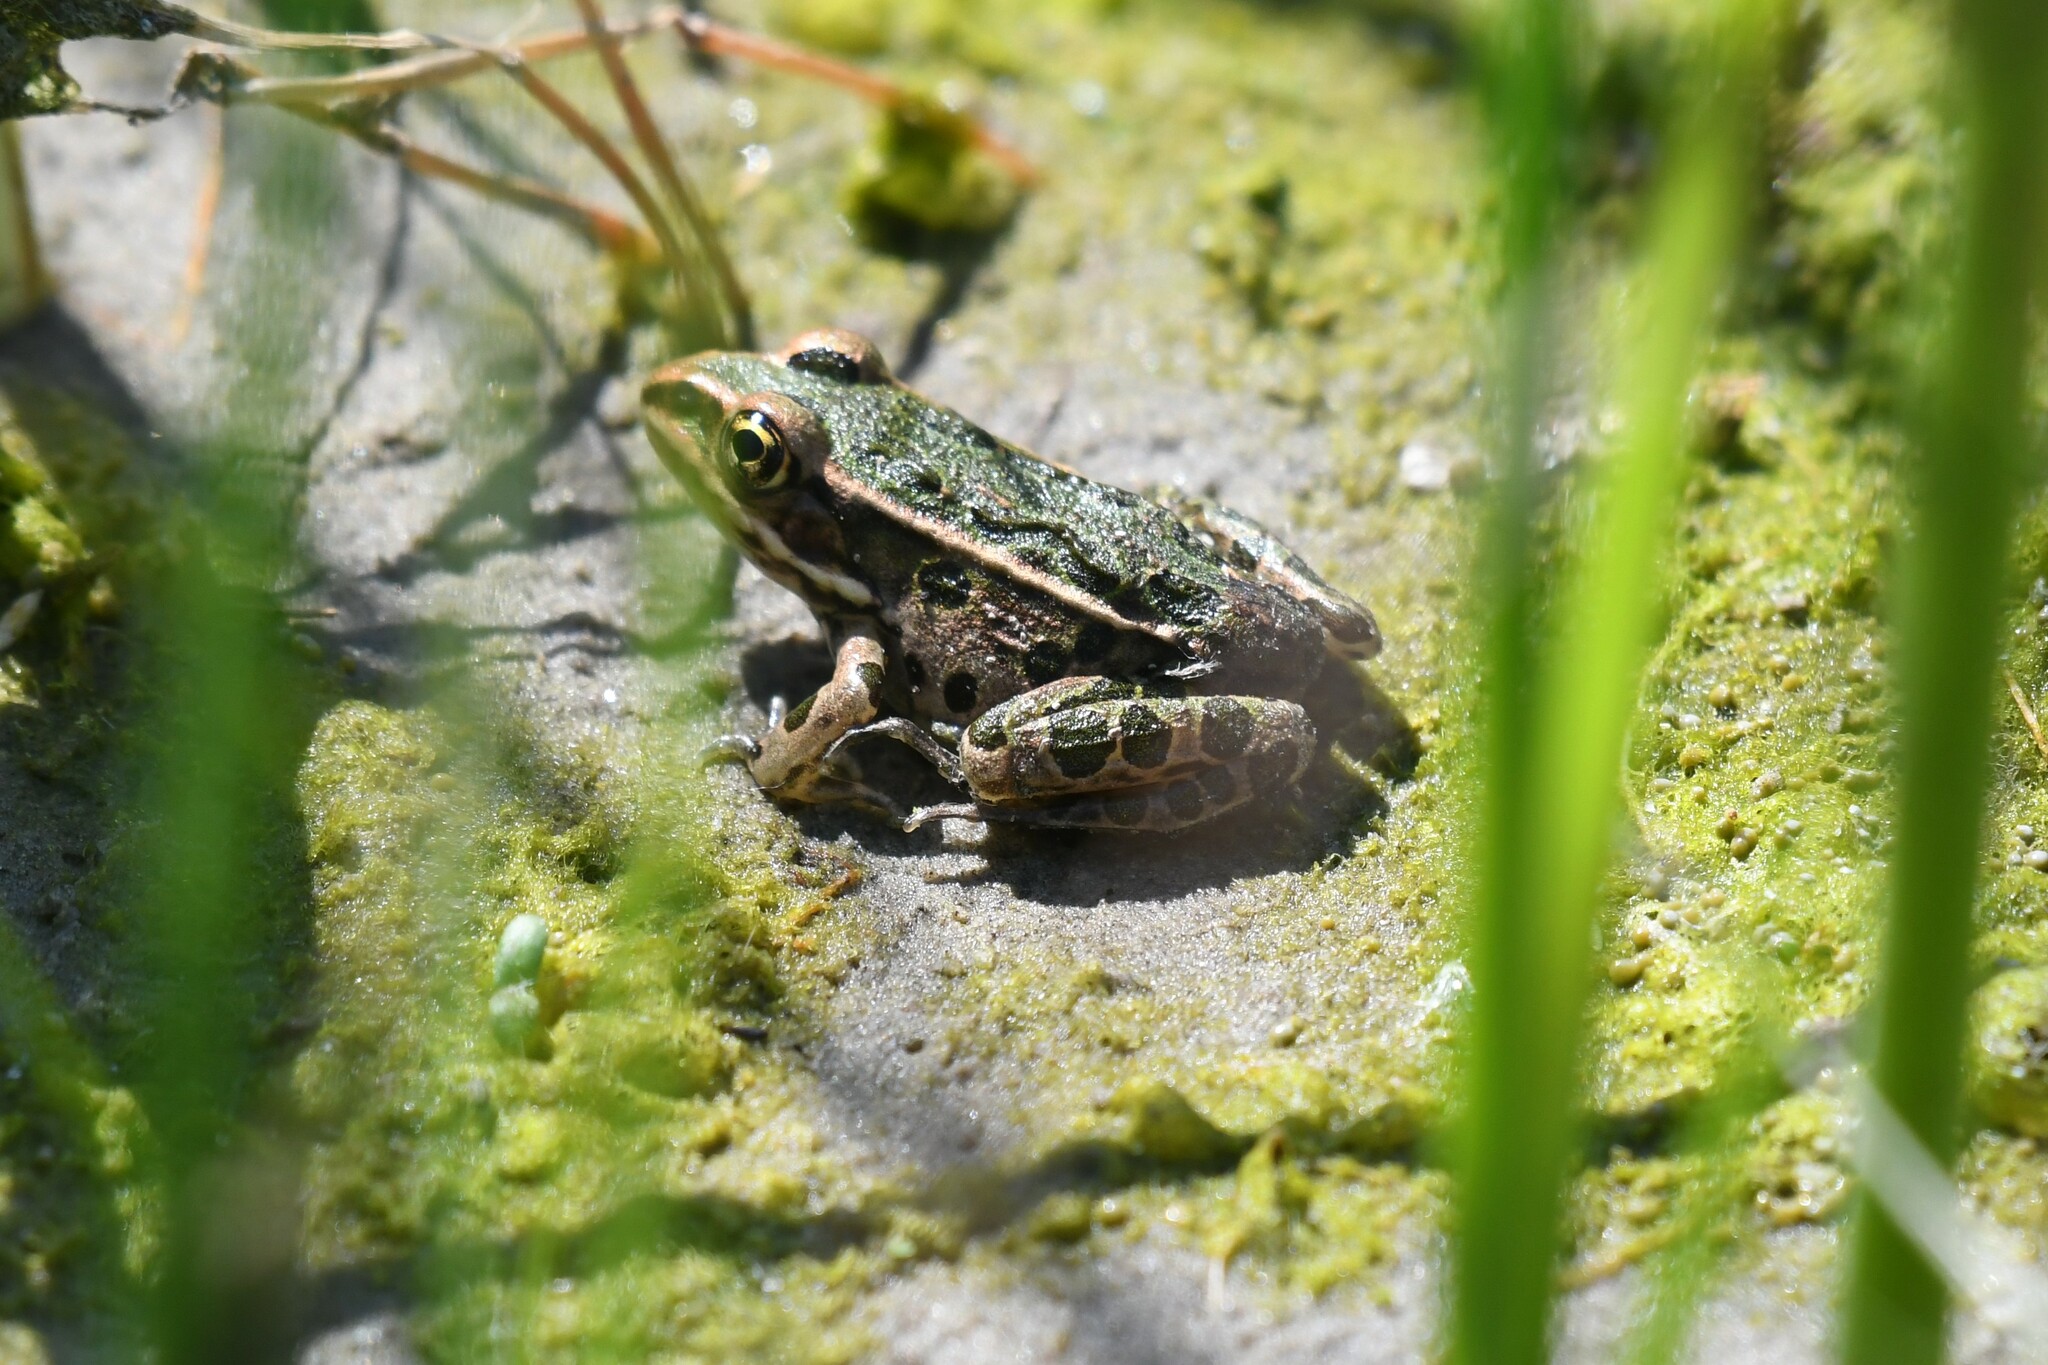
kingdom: Animalia
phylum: Chordata
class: Amphibia
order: Anura
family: Ranidae
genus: Lithobates
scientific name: Lithobates pipiens
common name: Northern leopard frog
